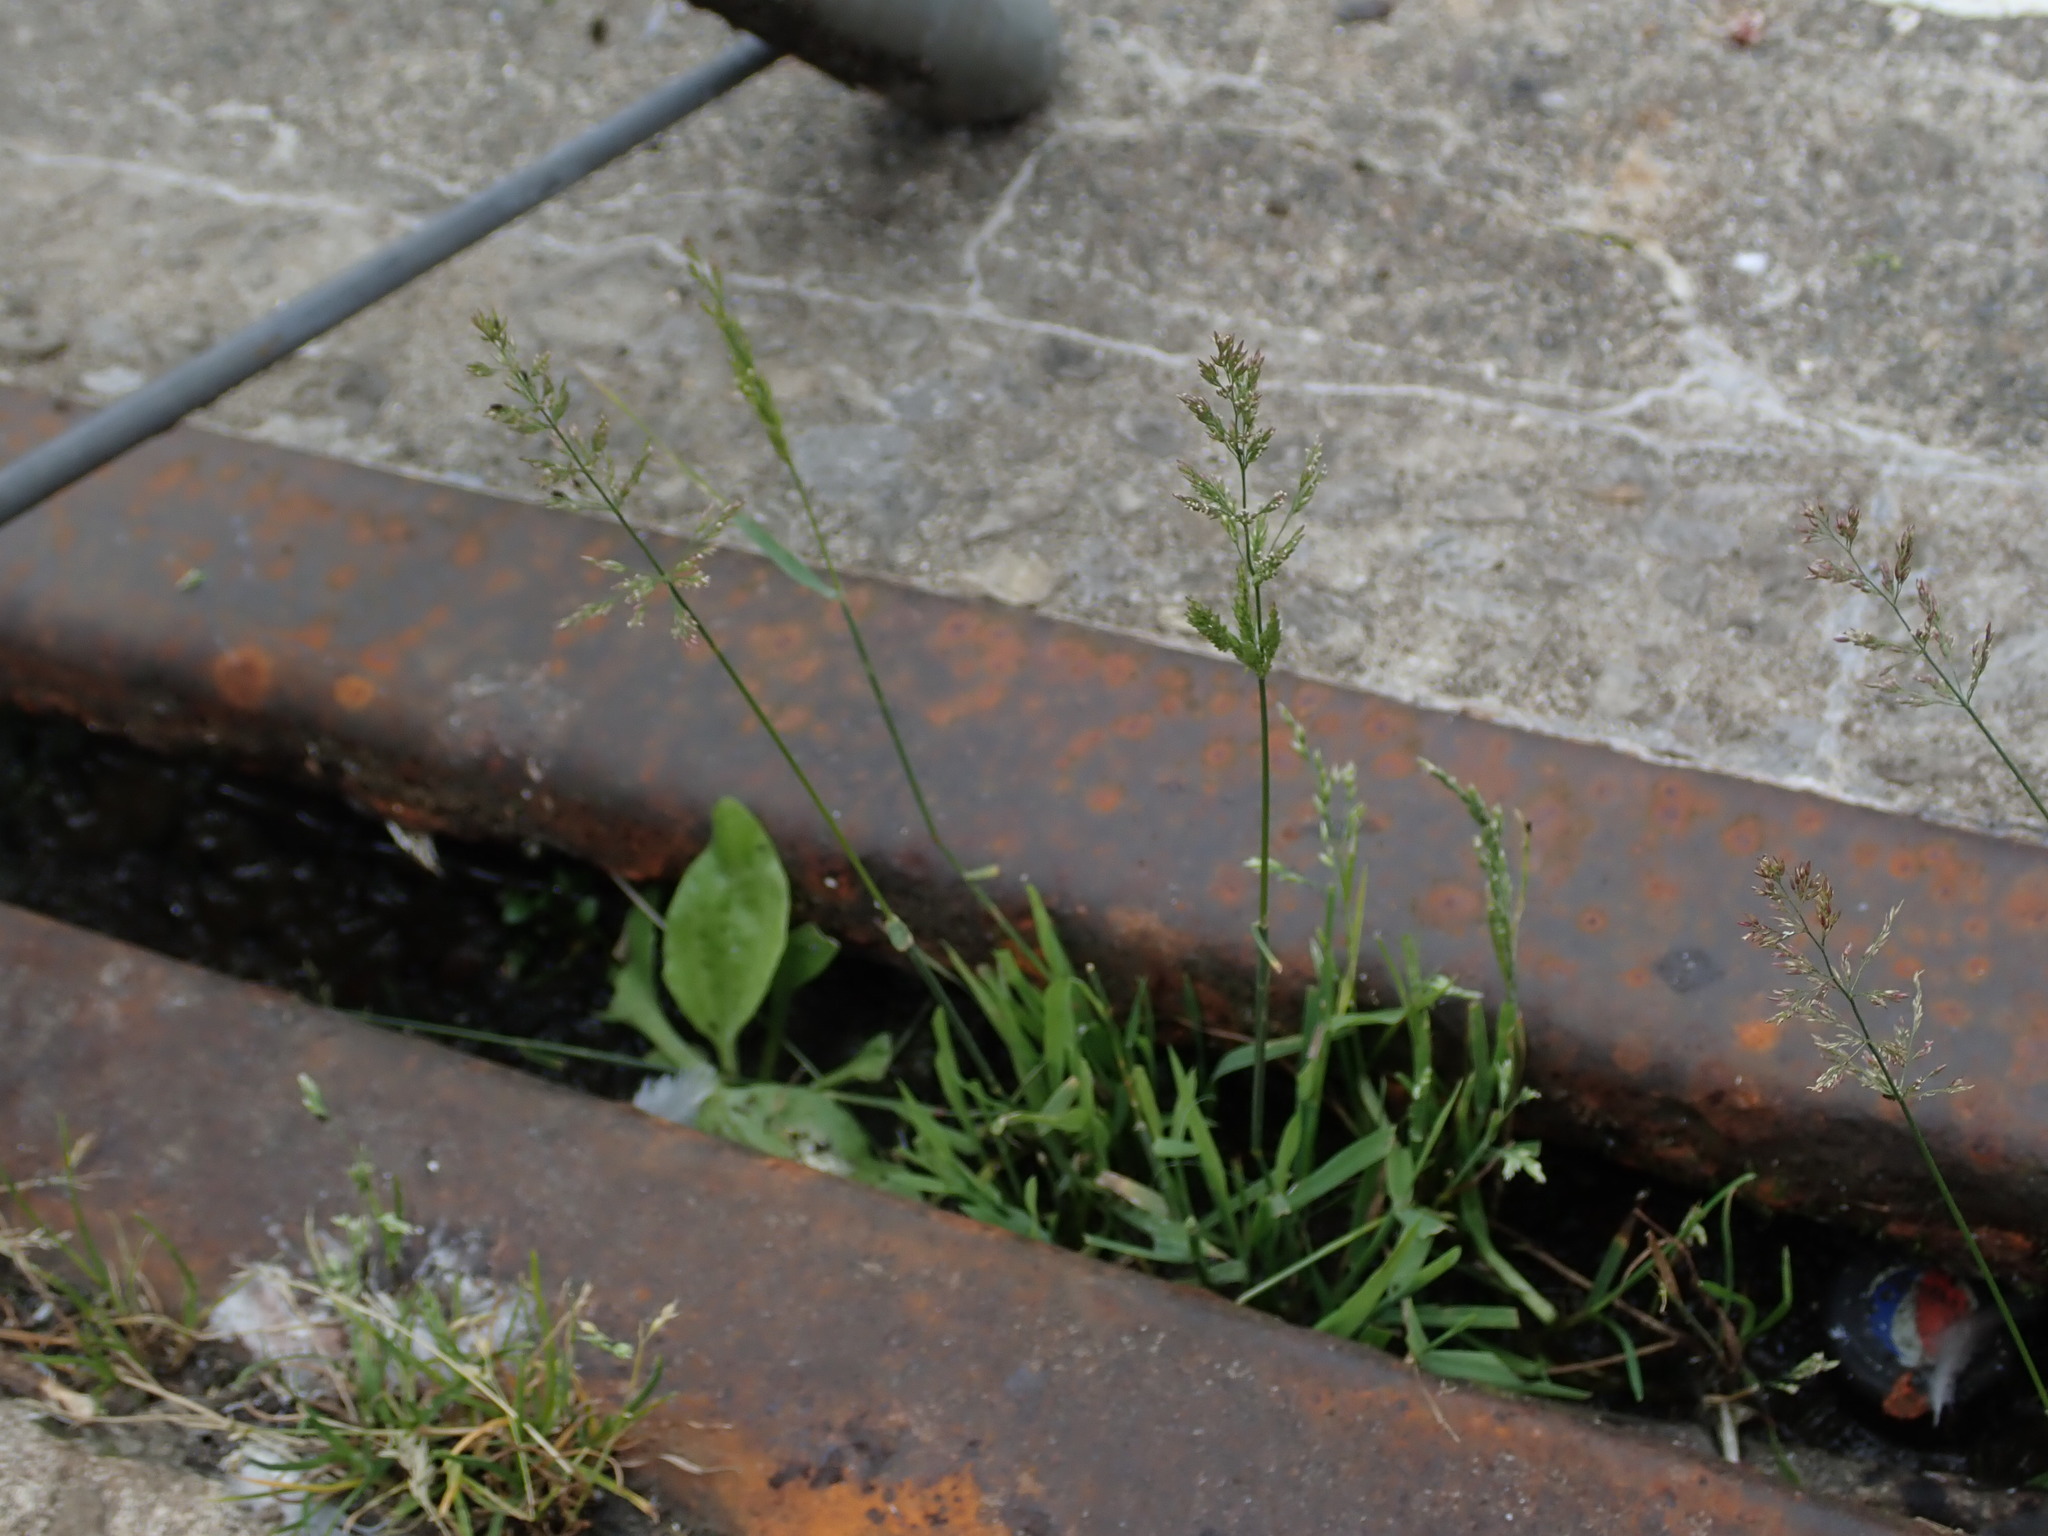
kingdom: Plantae
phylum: Tracheophyta
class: Liliopsida
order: Poales
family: Poaceae
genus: Polypogon
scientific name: Polypogon viridis
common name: Water bent
